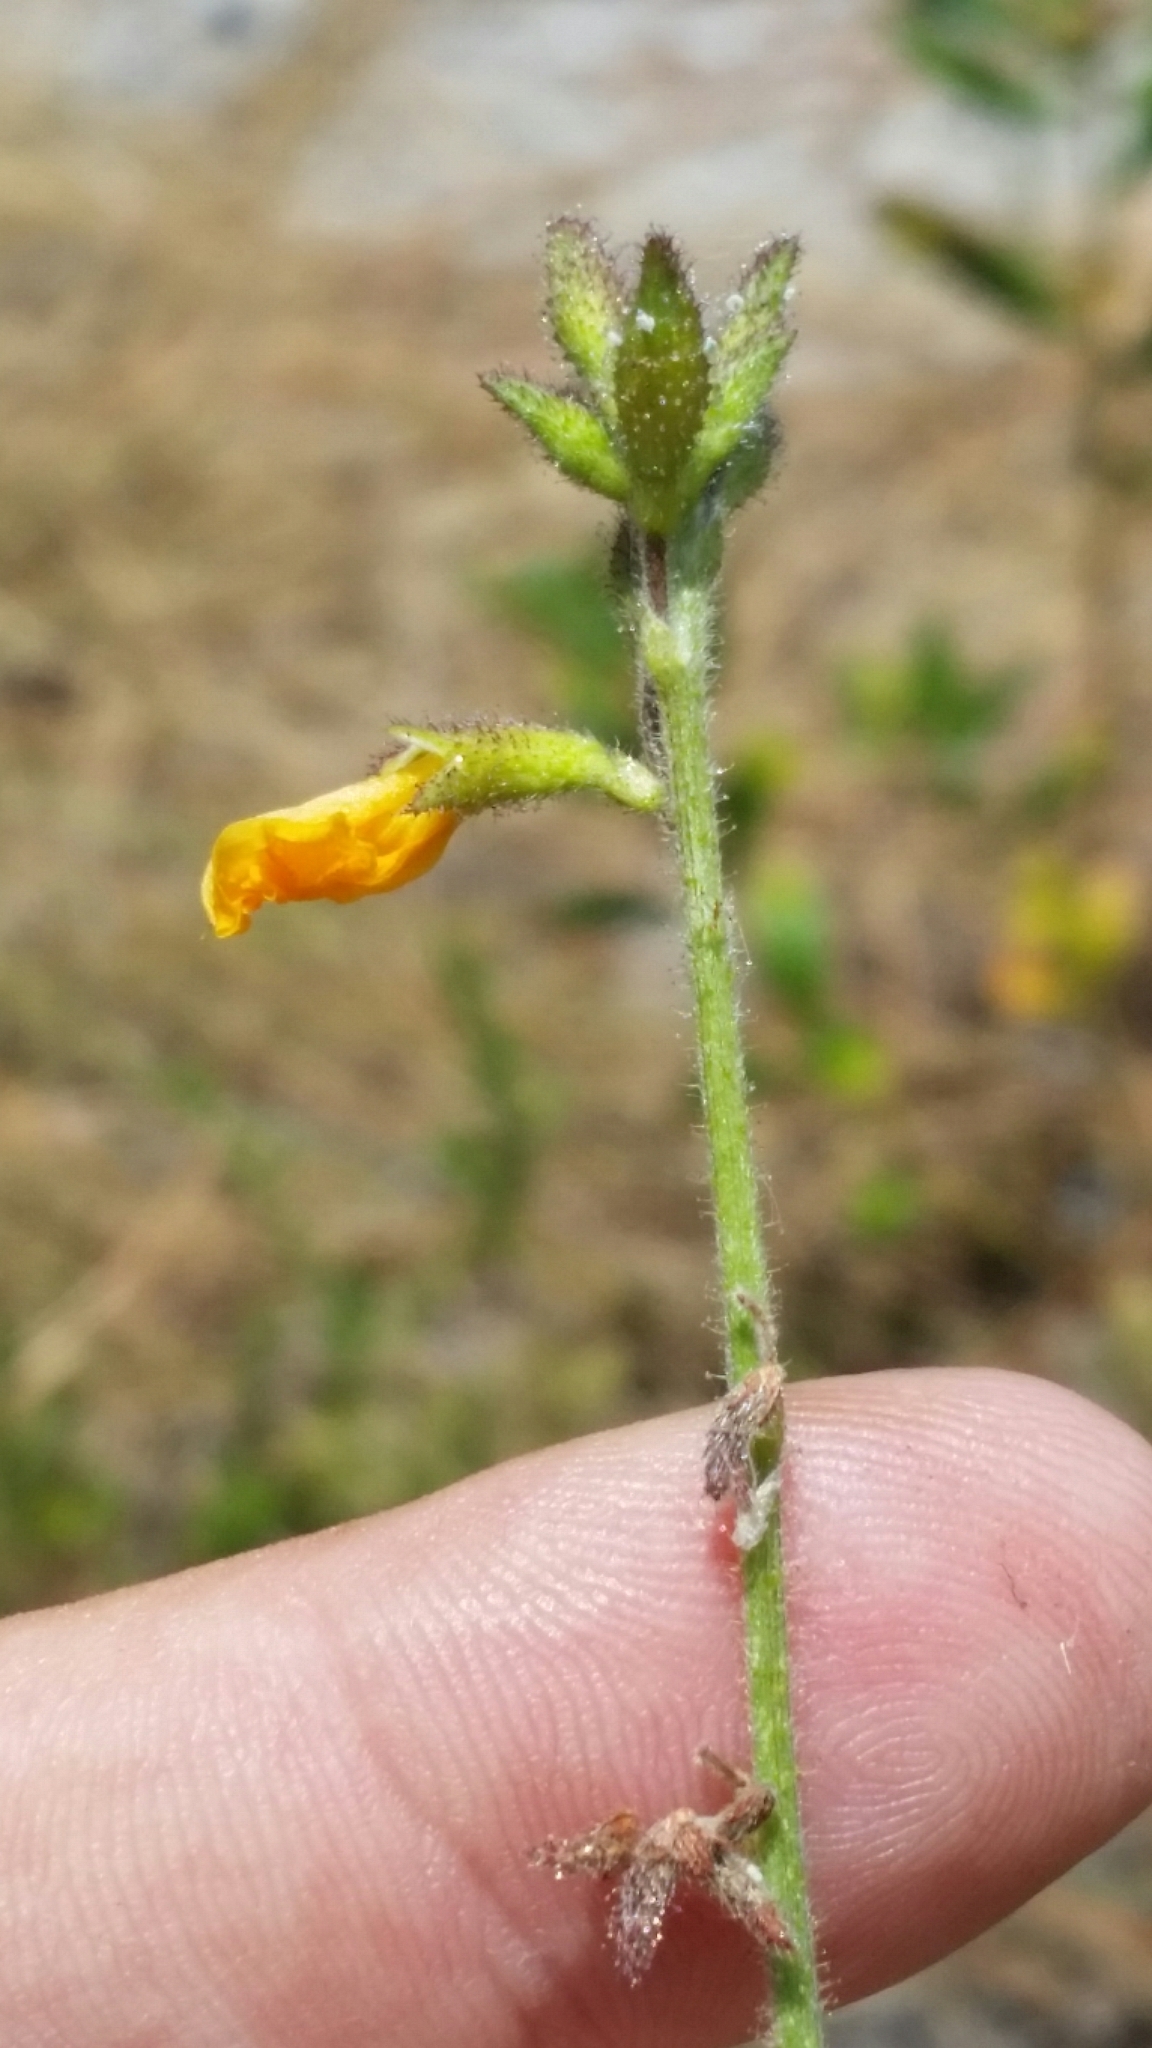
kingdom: Plantae
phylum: Tracheophyta
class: Magnoliopsida
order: Fabales
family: Fabaceae
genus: Chapmannia
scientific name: Chapmannia floridana
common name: Alicia
